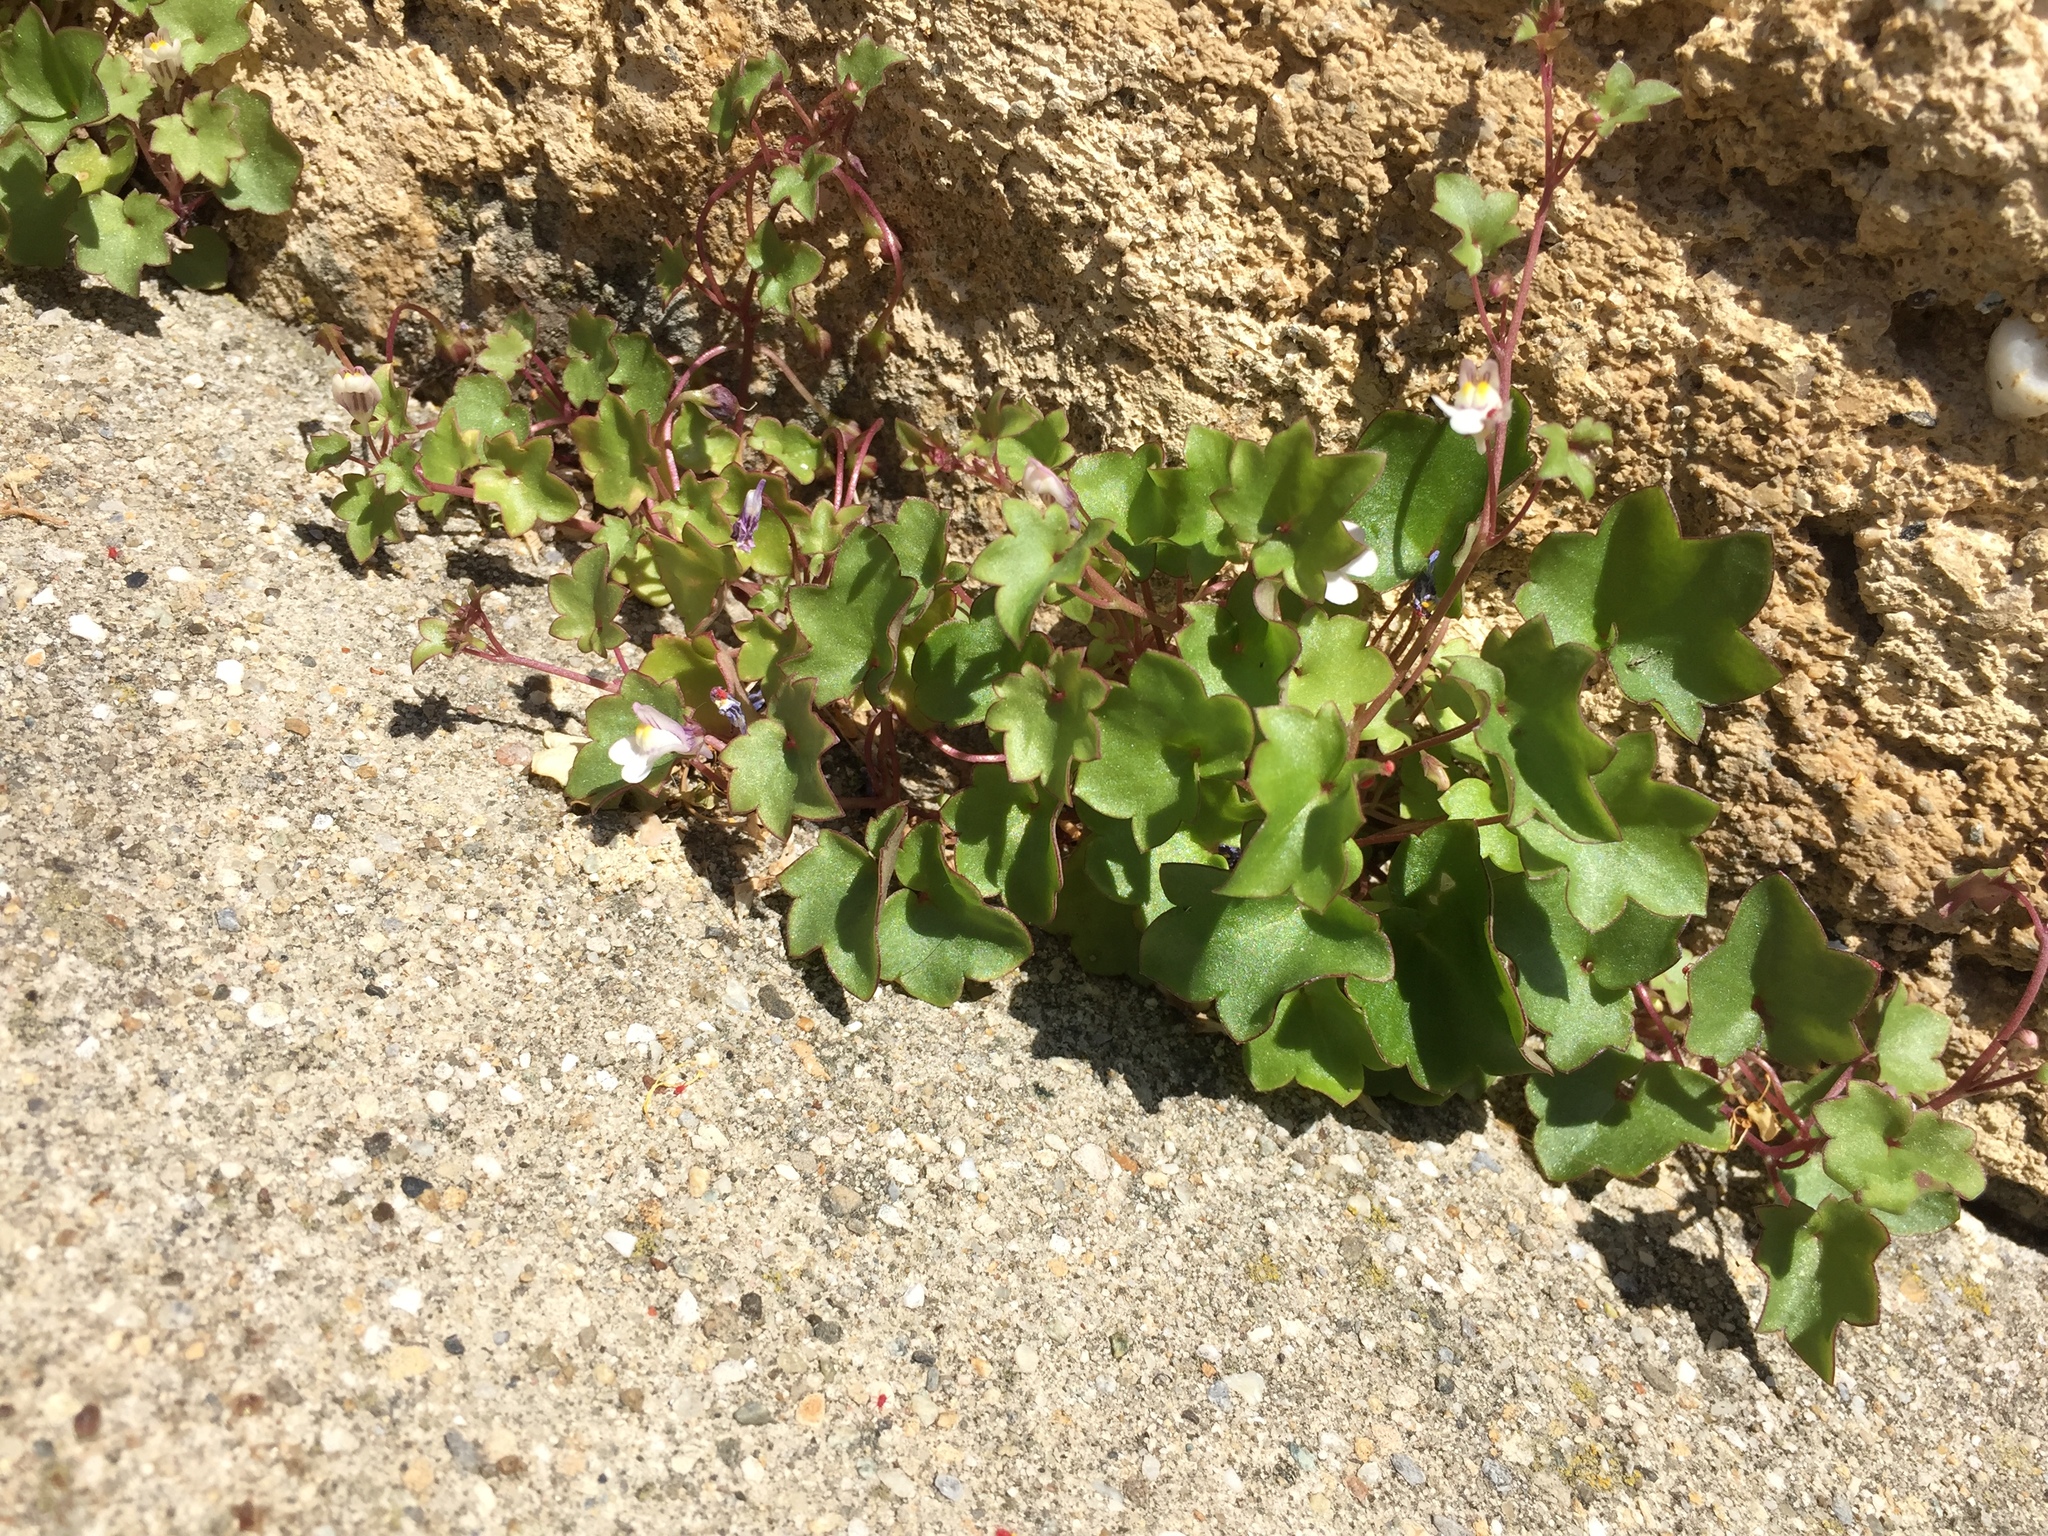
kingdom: Plantae
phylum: Tracheophyta
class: Magnoliopsida
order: Lamiales
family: Plantaginaceae
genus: Cymbalaria
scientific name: Cymbalaria muralis
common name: Ivy-leaved toadflax
